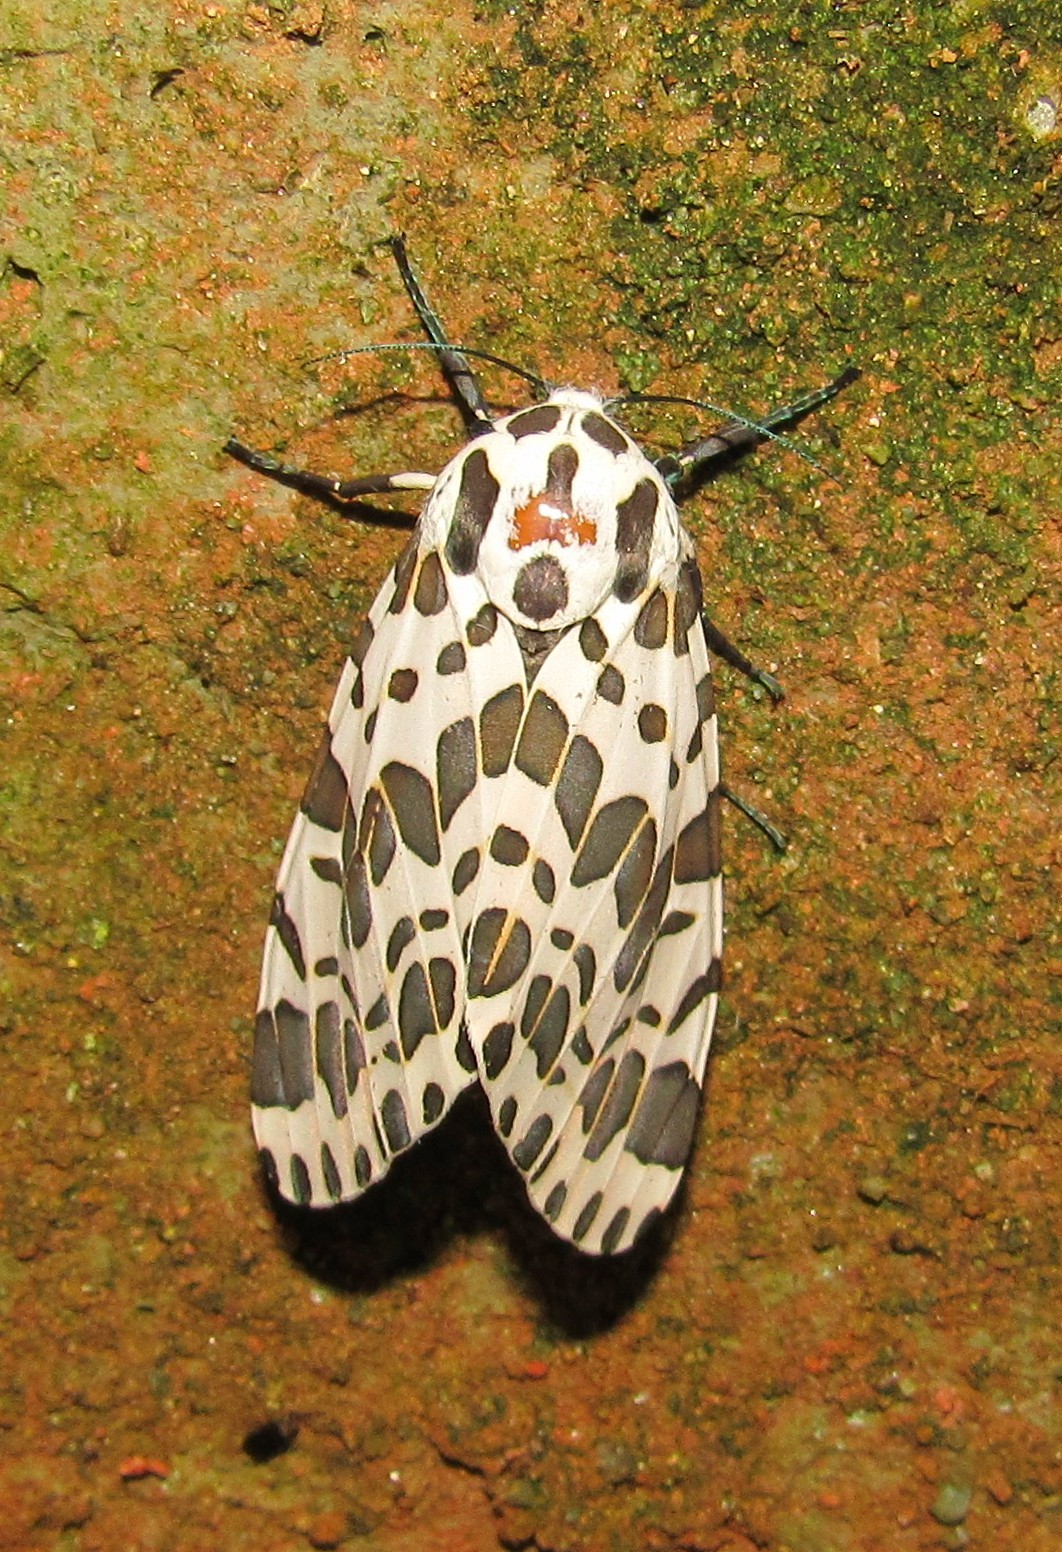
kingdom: Animalia
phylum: Arthropoda
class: Insecta
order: Lepidoptera
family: Erebidae
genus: Hypercompe
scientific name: Hypercompe brasiliensis
